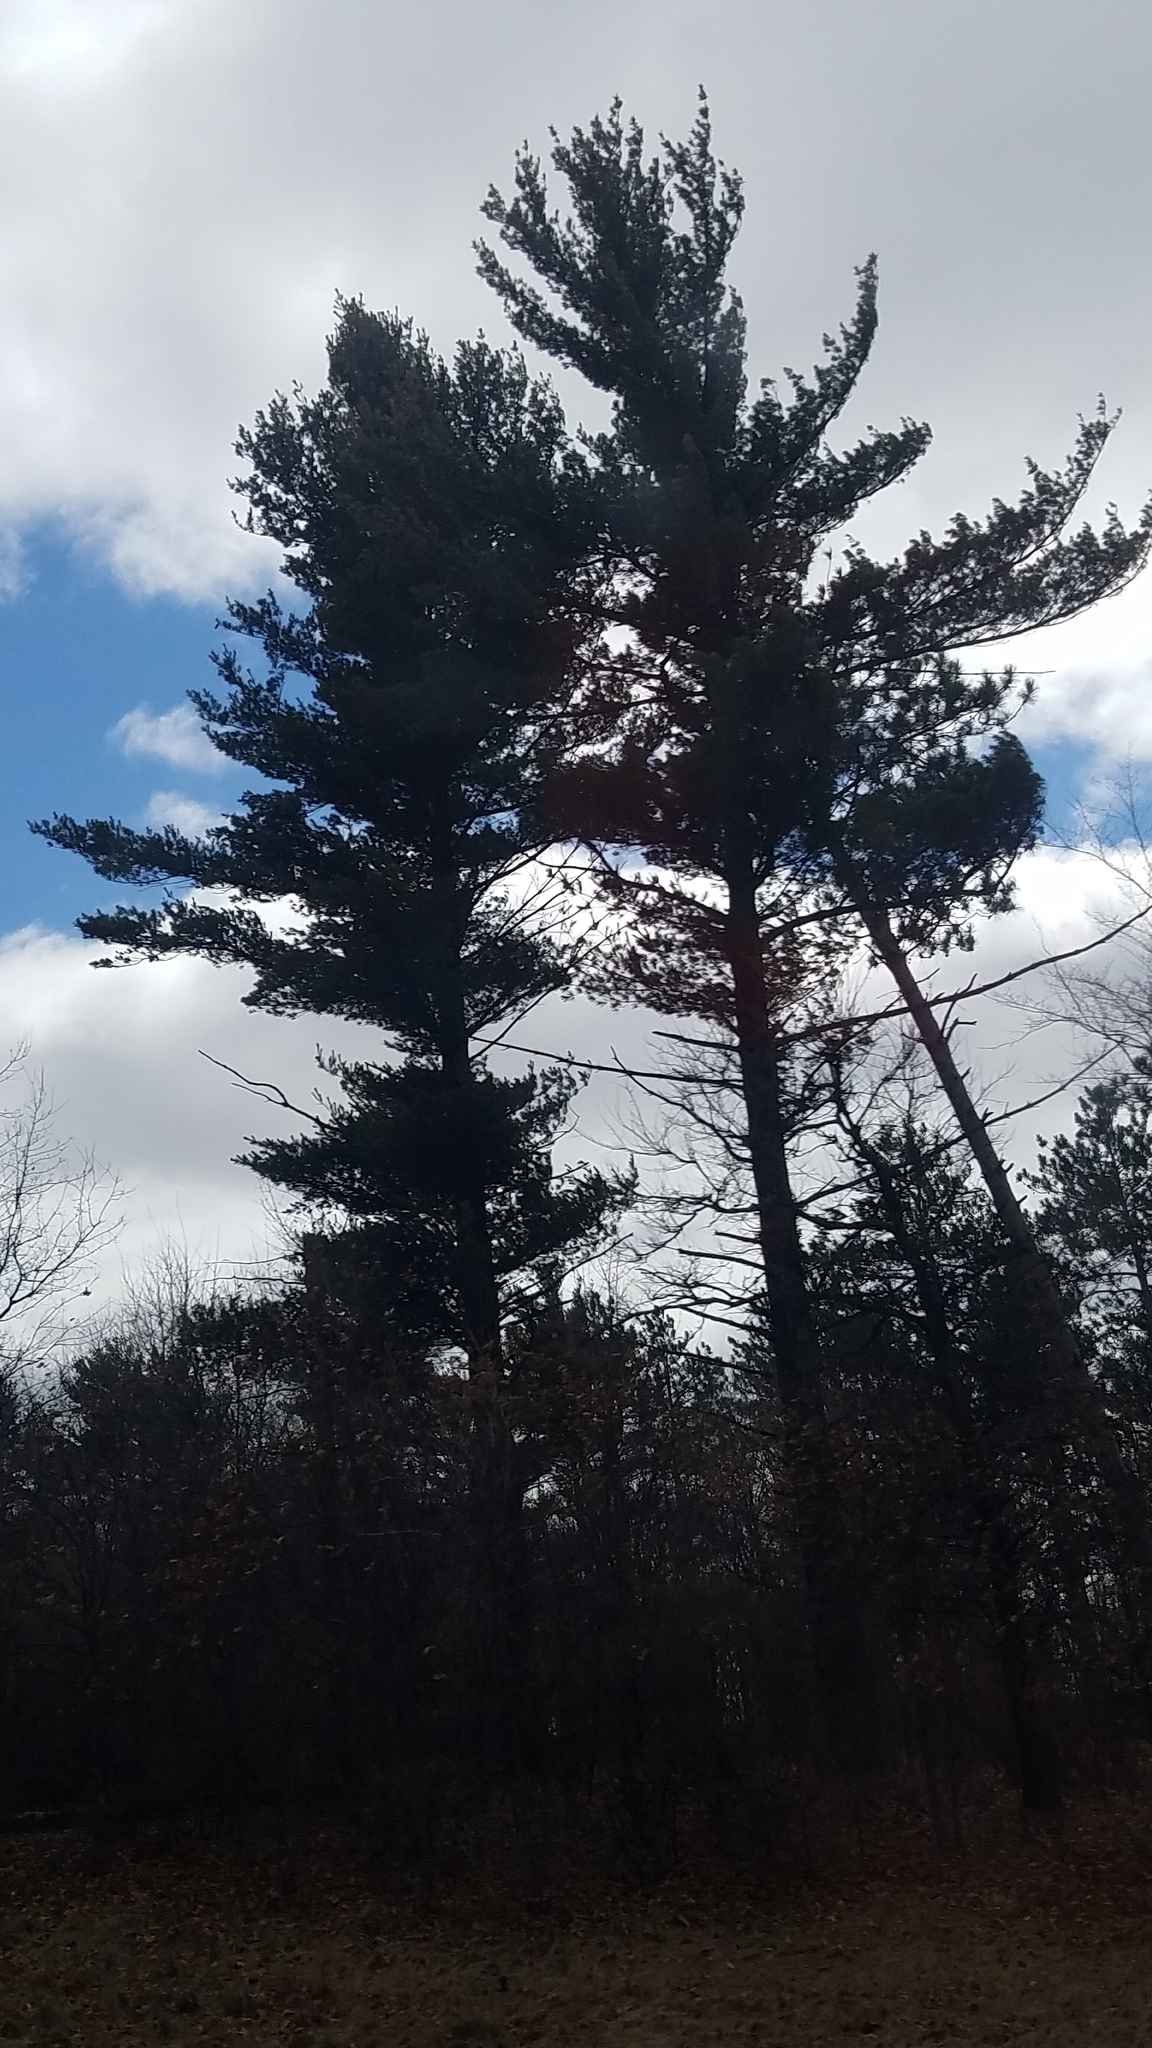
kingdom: Plantae
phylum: Tracheophyta
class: Pinopsida
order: Pinales
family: Pinaceae
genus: Pinus
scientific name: Pinus strobus
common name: Weymouth pine
